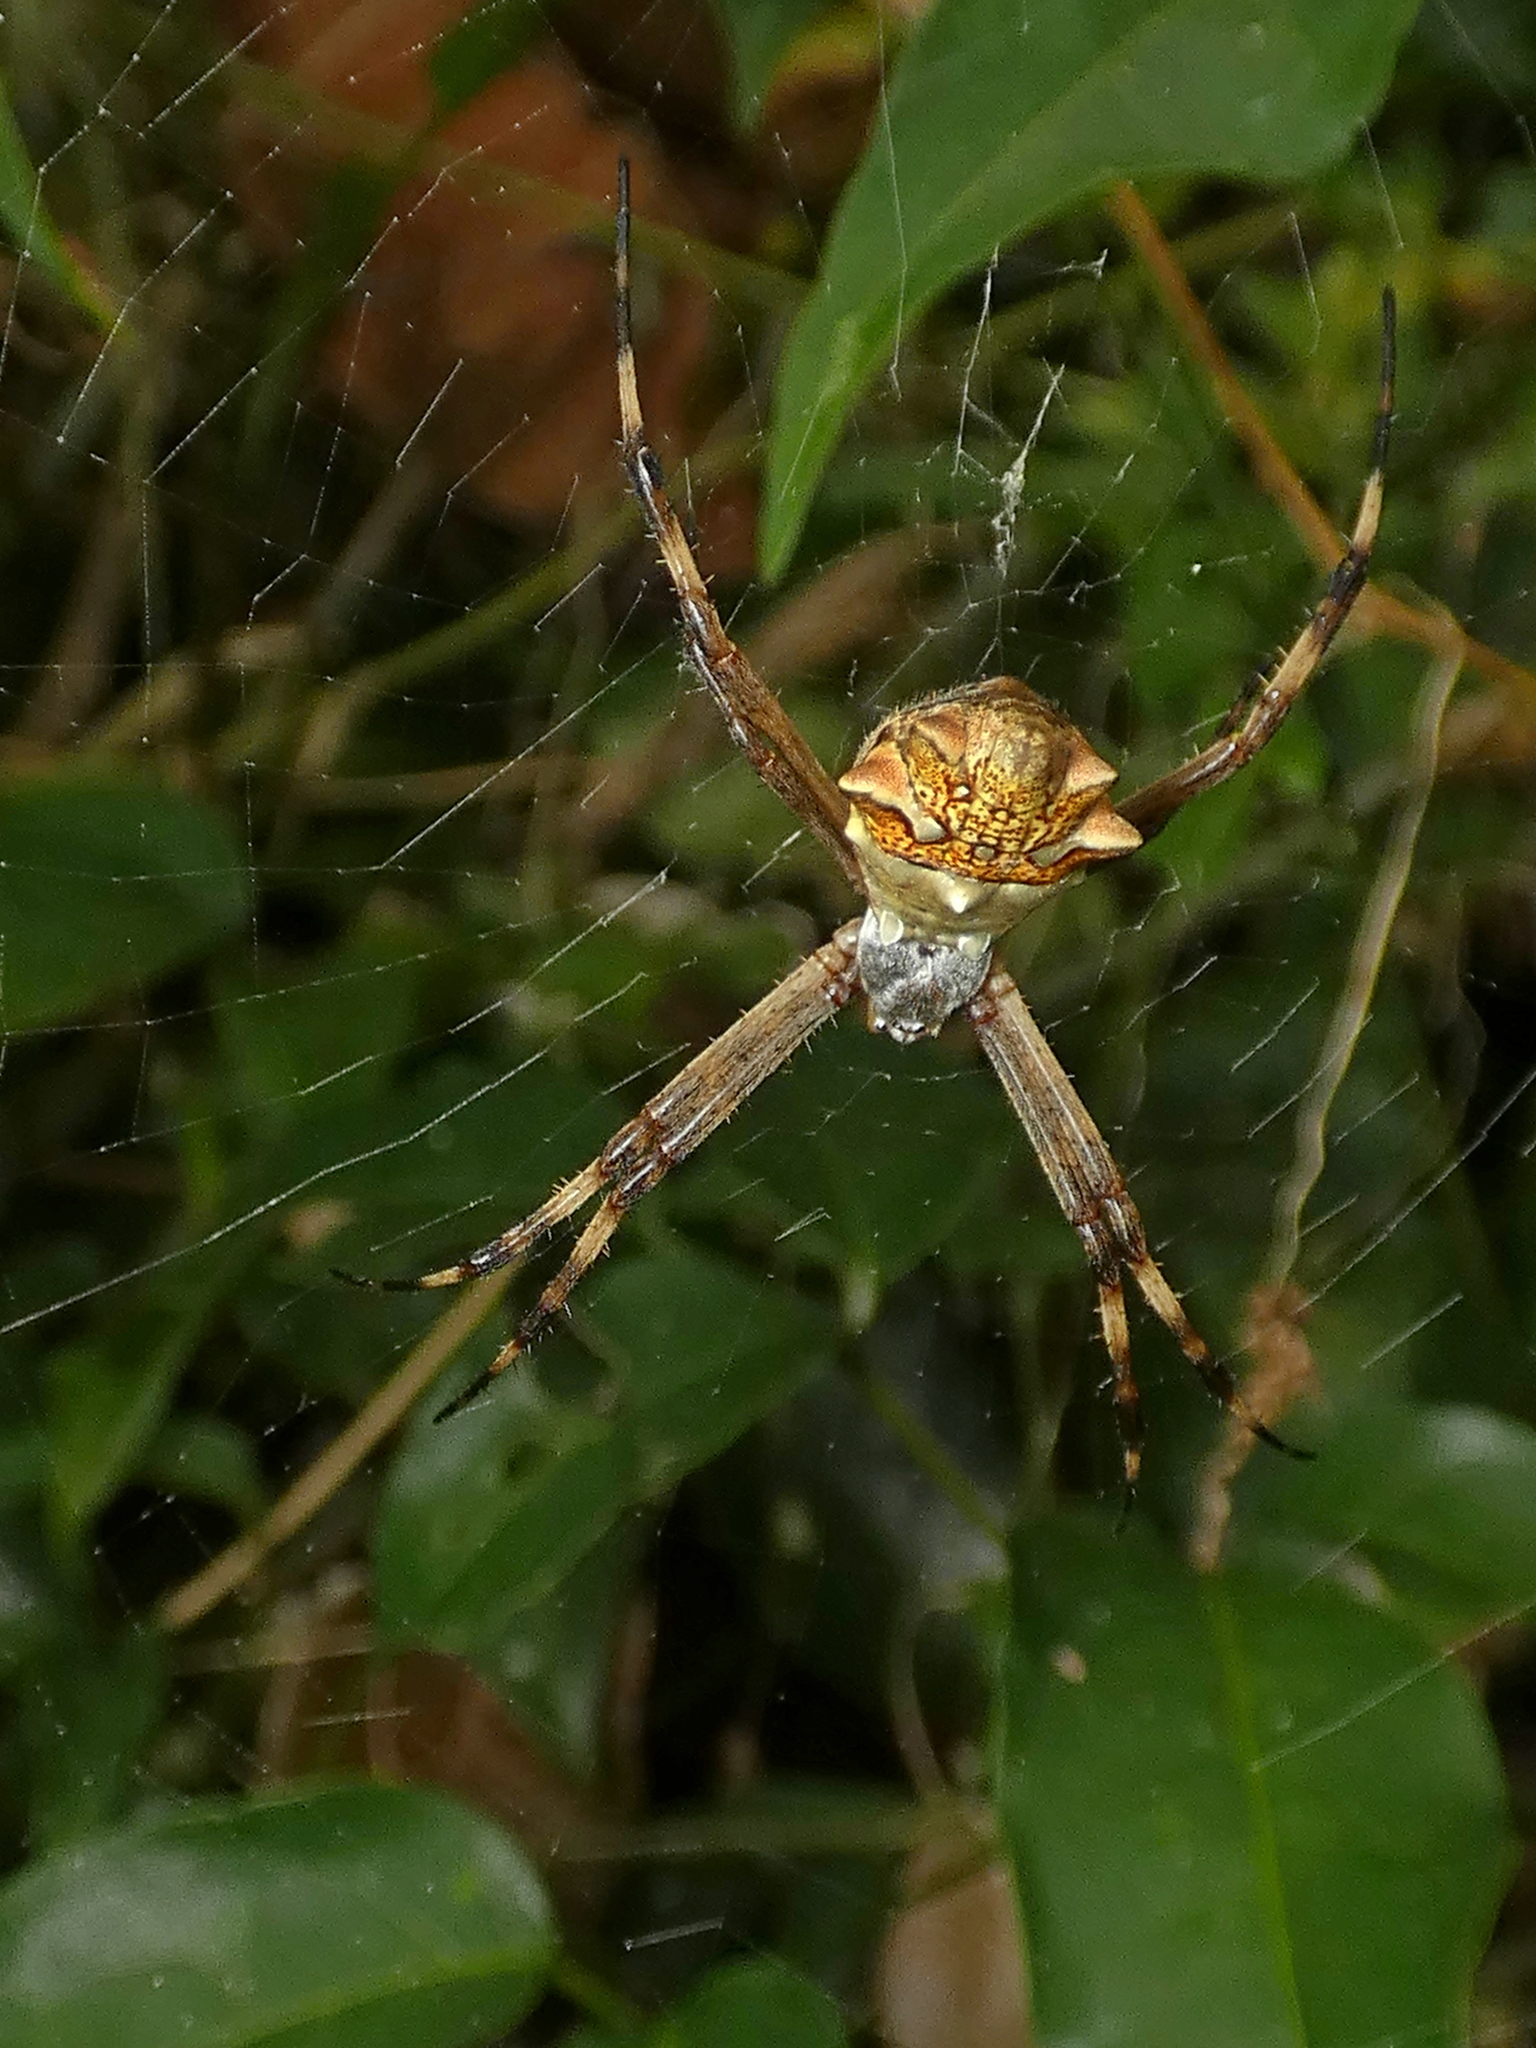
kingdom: Animalia
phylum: Arthropoda
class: Arachnida
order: Araneae
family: Araneidae
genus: Argiope
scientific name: Argiope argentata
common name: Orb weavers
